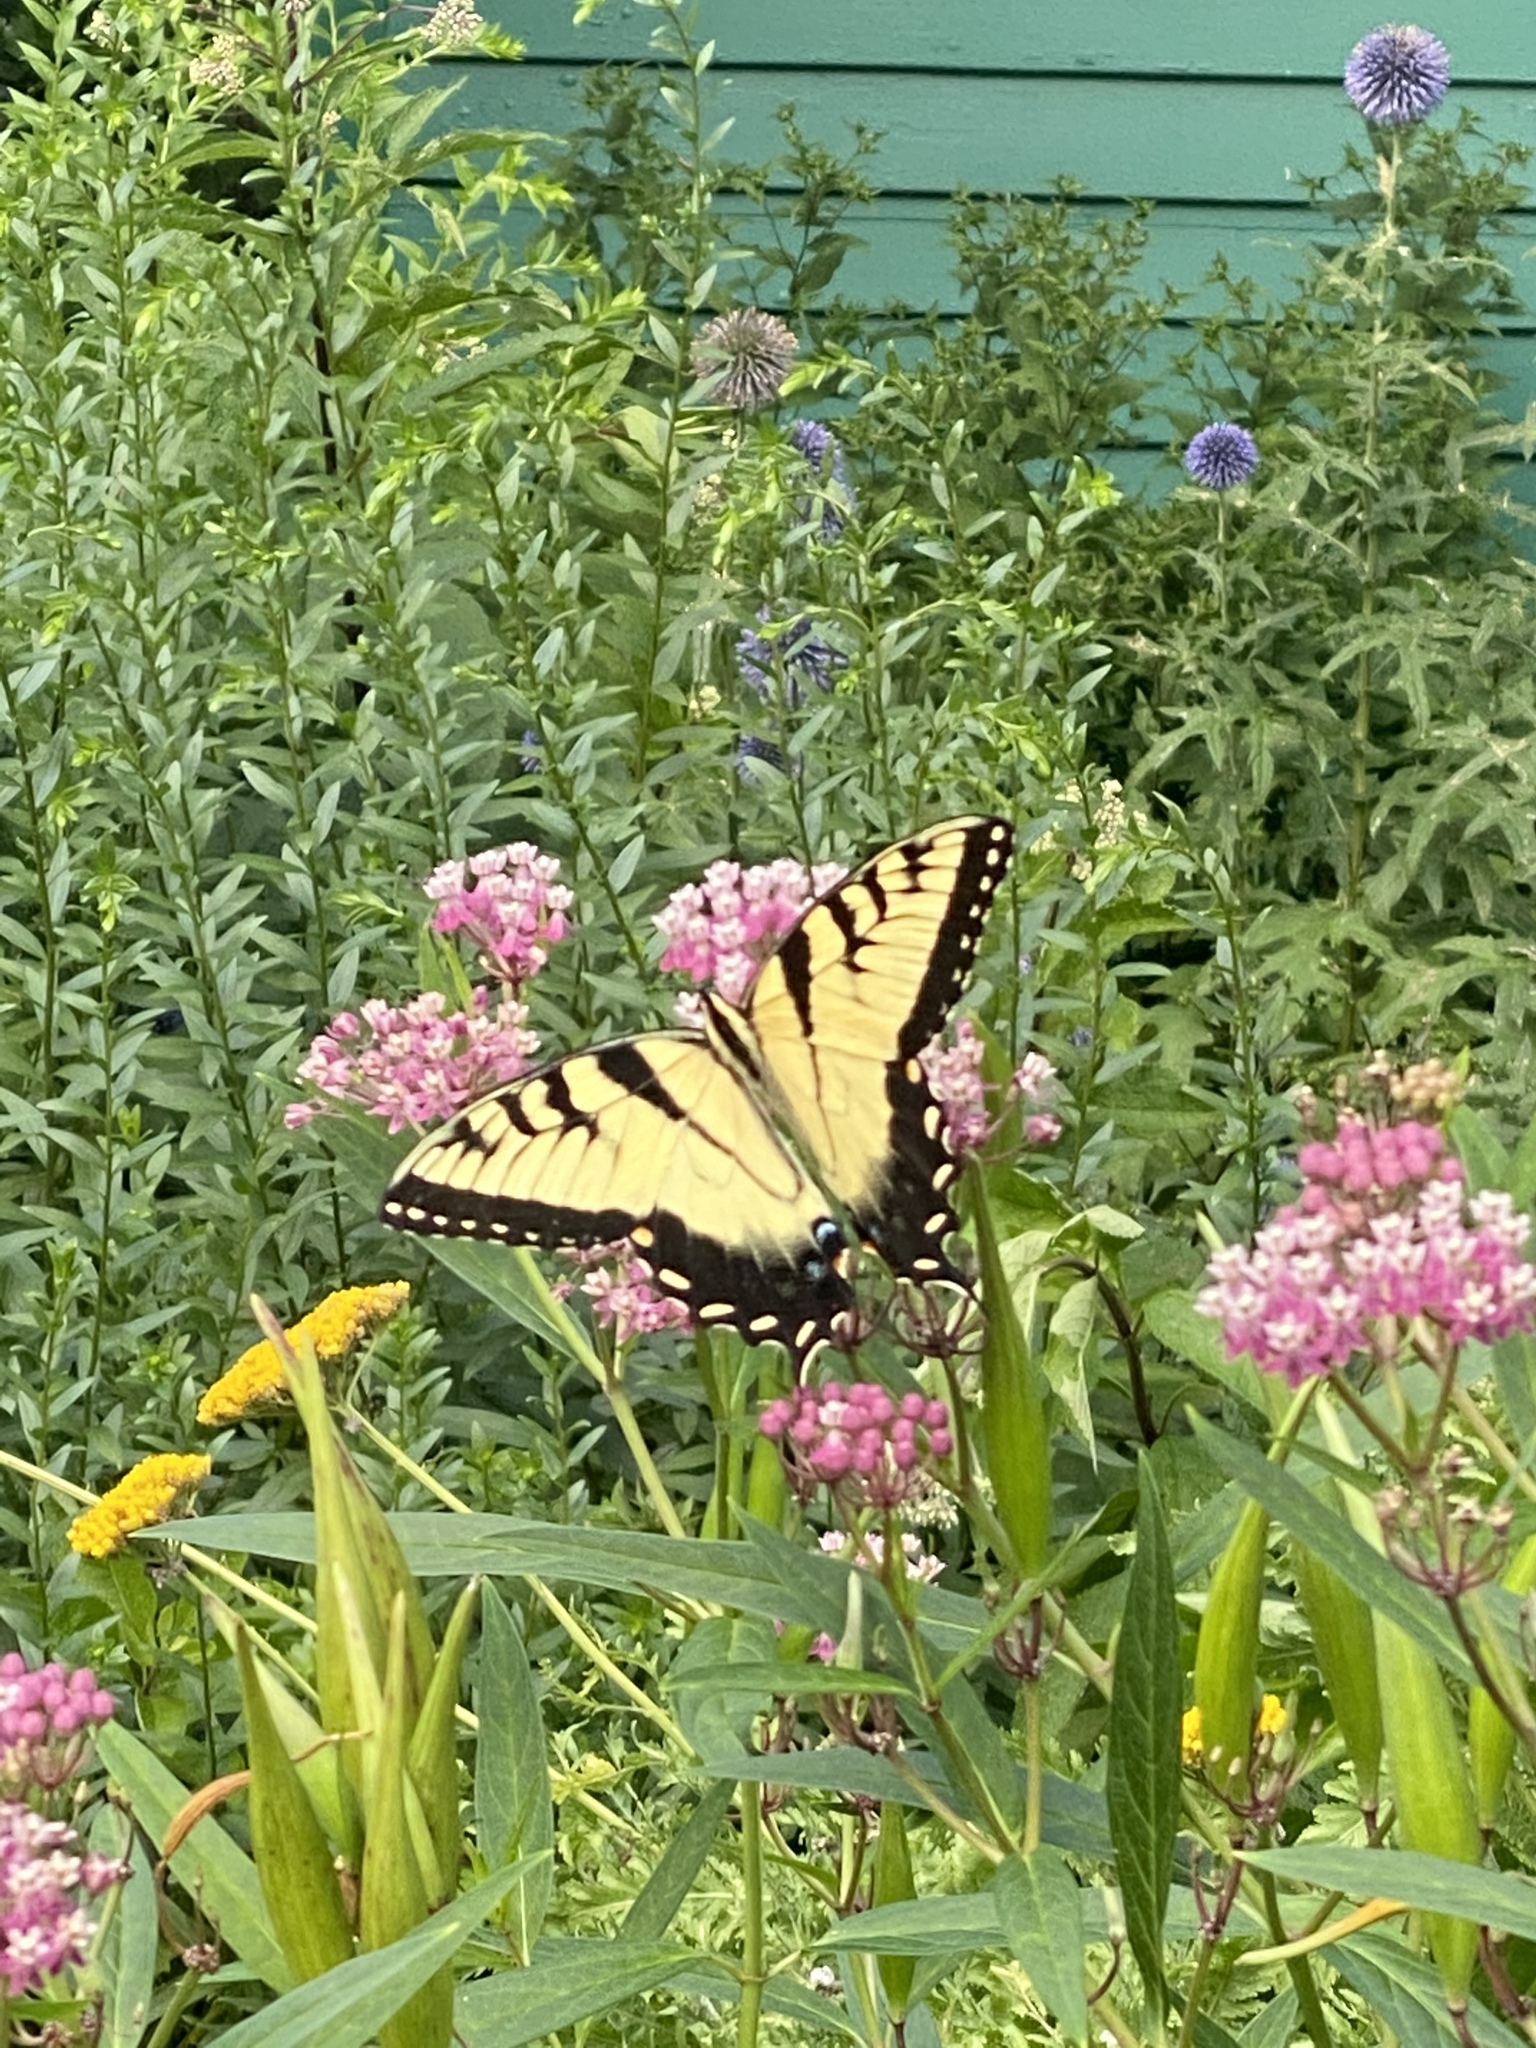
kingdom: Animalia
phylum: Arthropoda
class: Insecta
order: Lepidoptera
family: Papilionidae
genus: Papilio
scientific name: Papilio glaucus
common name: Tiger swallowtail
